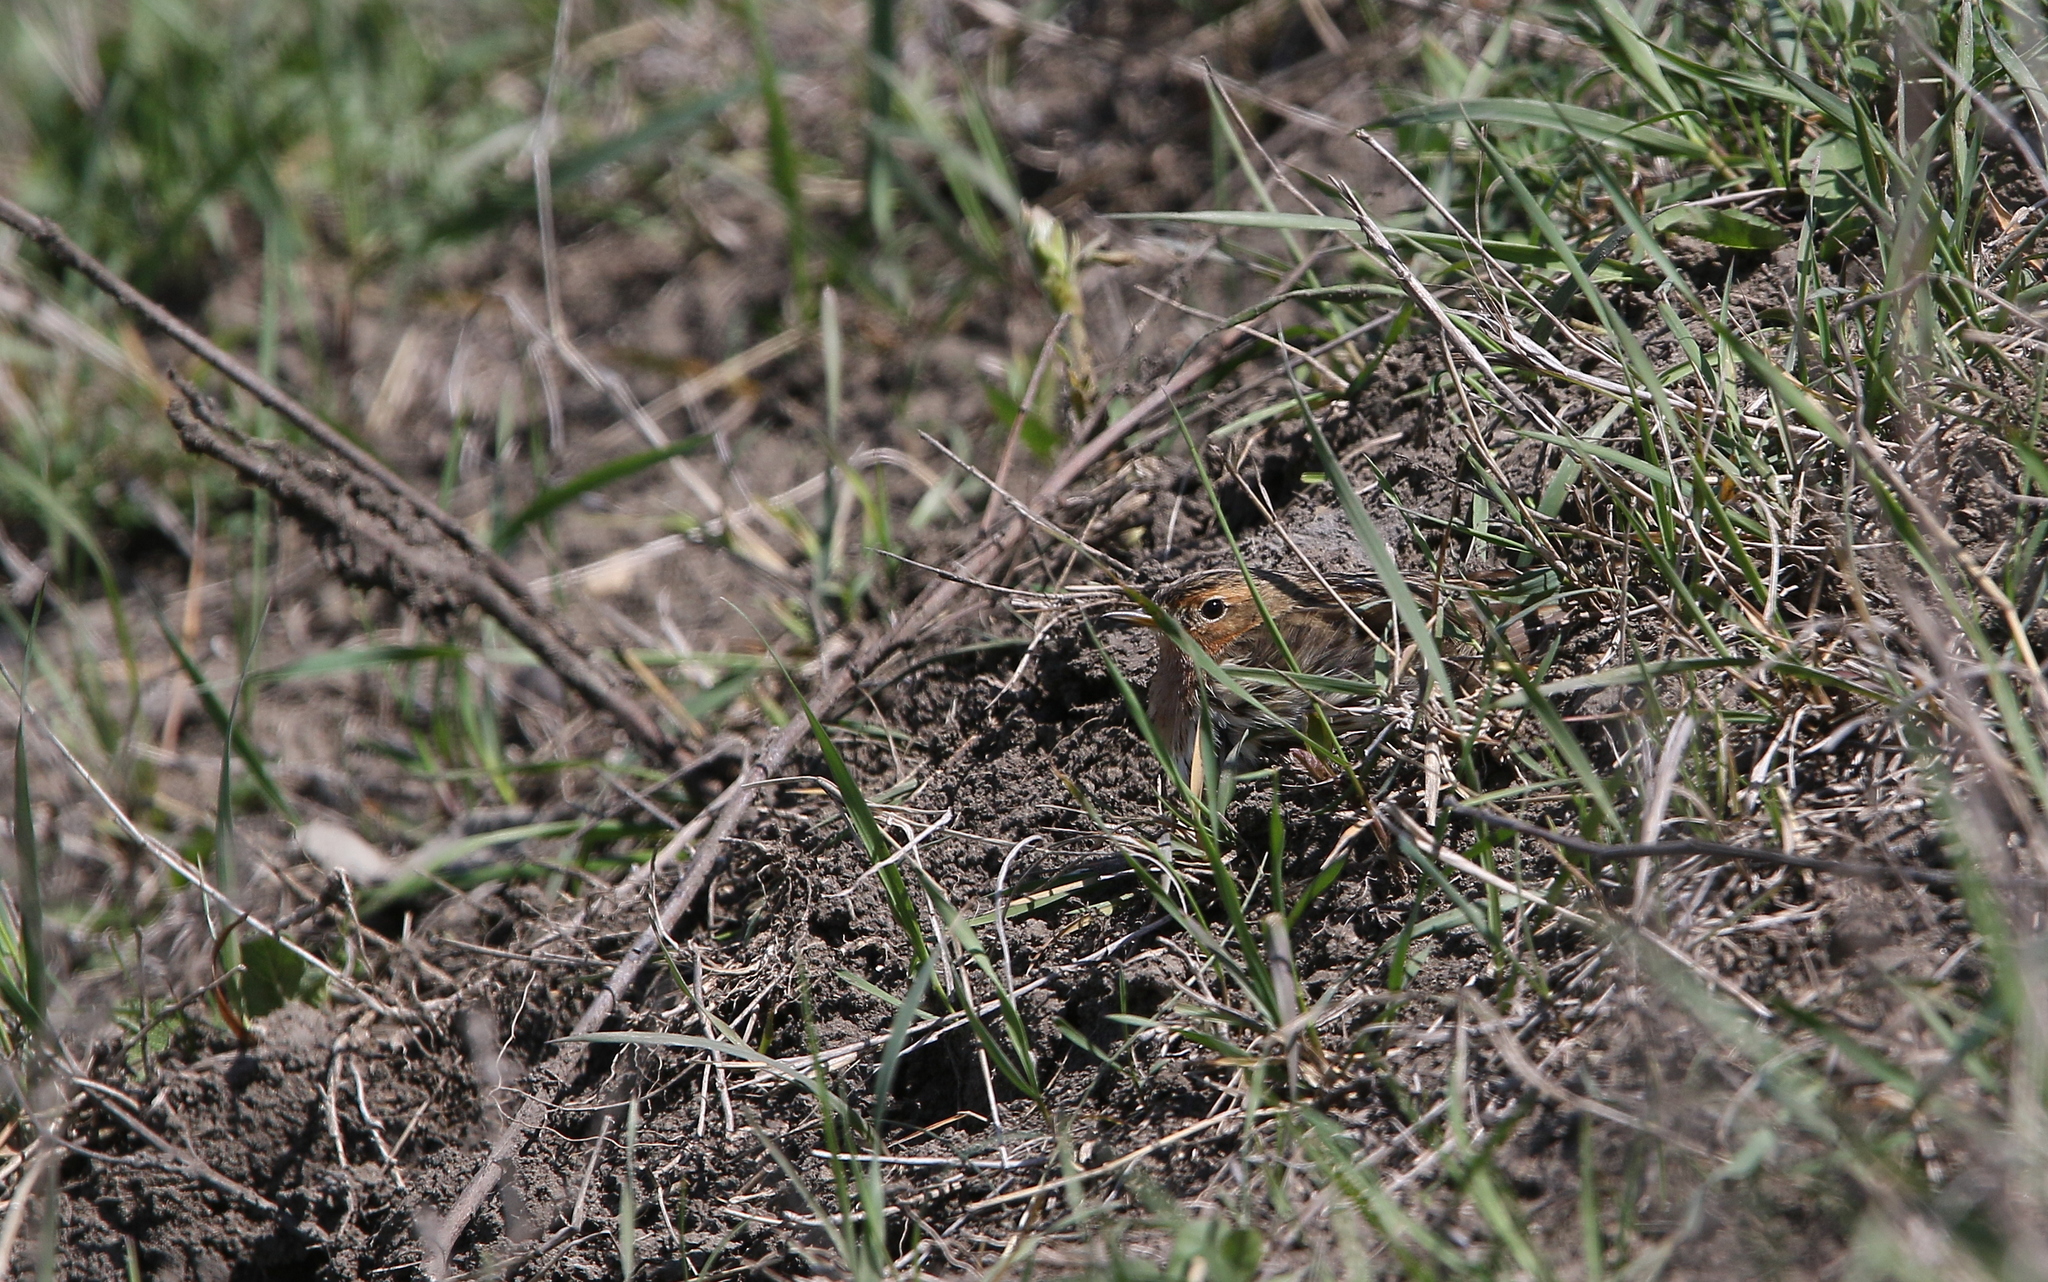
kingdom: Animalia
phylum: Chordata
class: Aves
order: Passeriformes
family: Motacillidae
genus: Anthus
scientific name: Anthus cervinus
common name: Red-throated pipit
